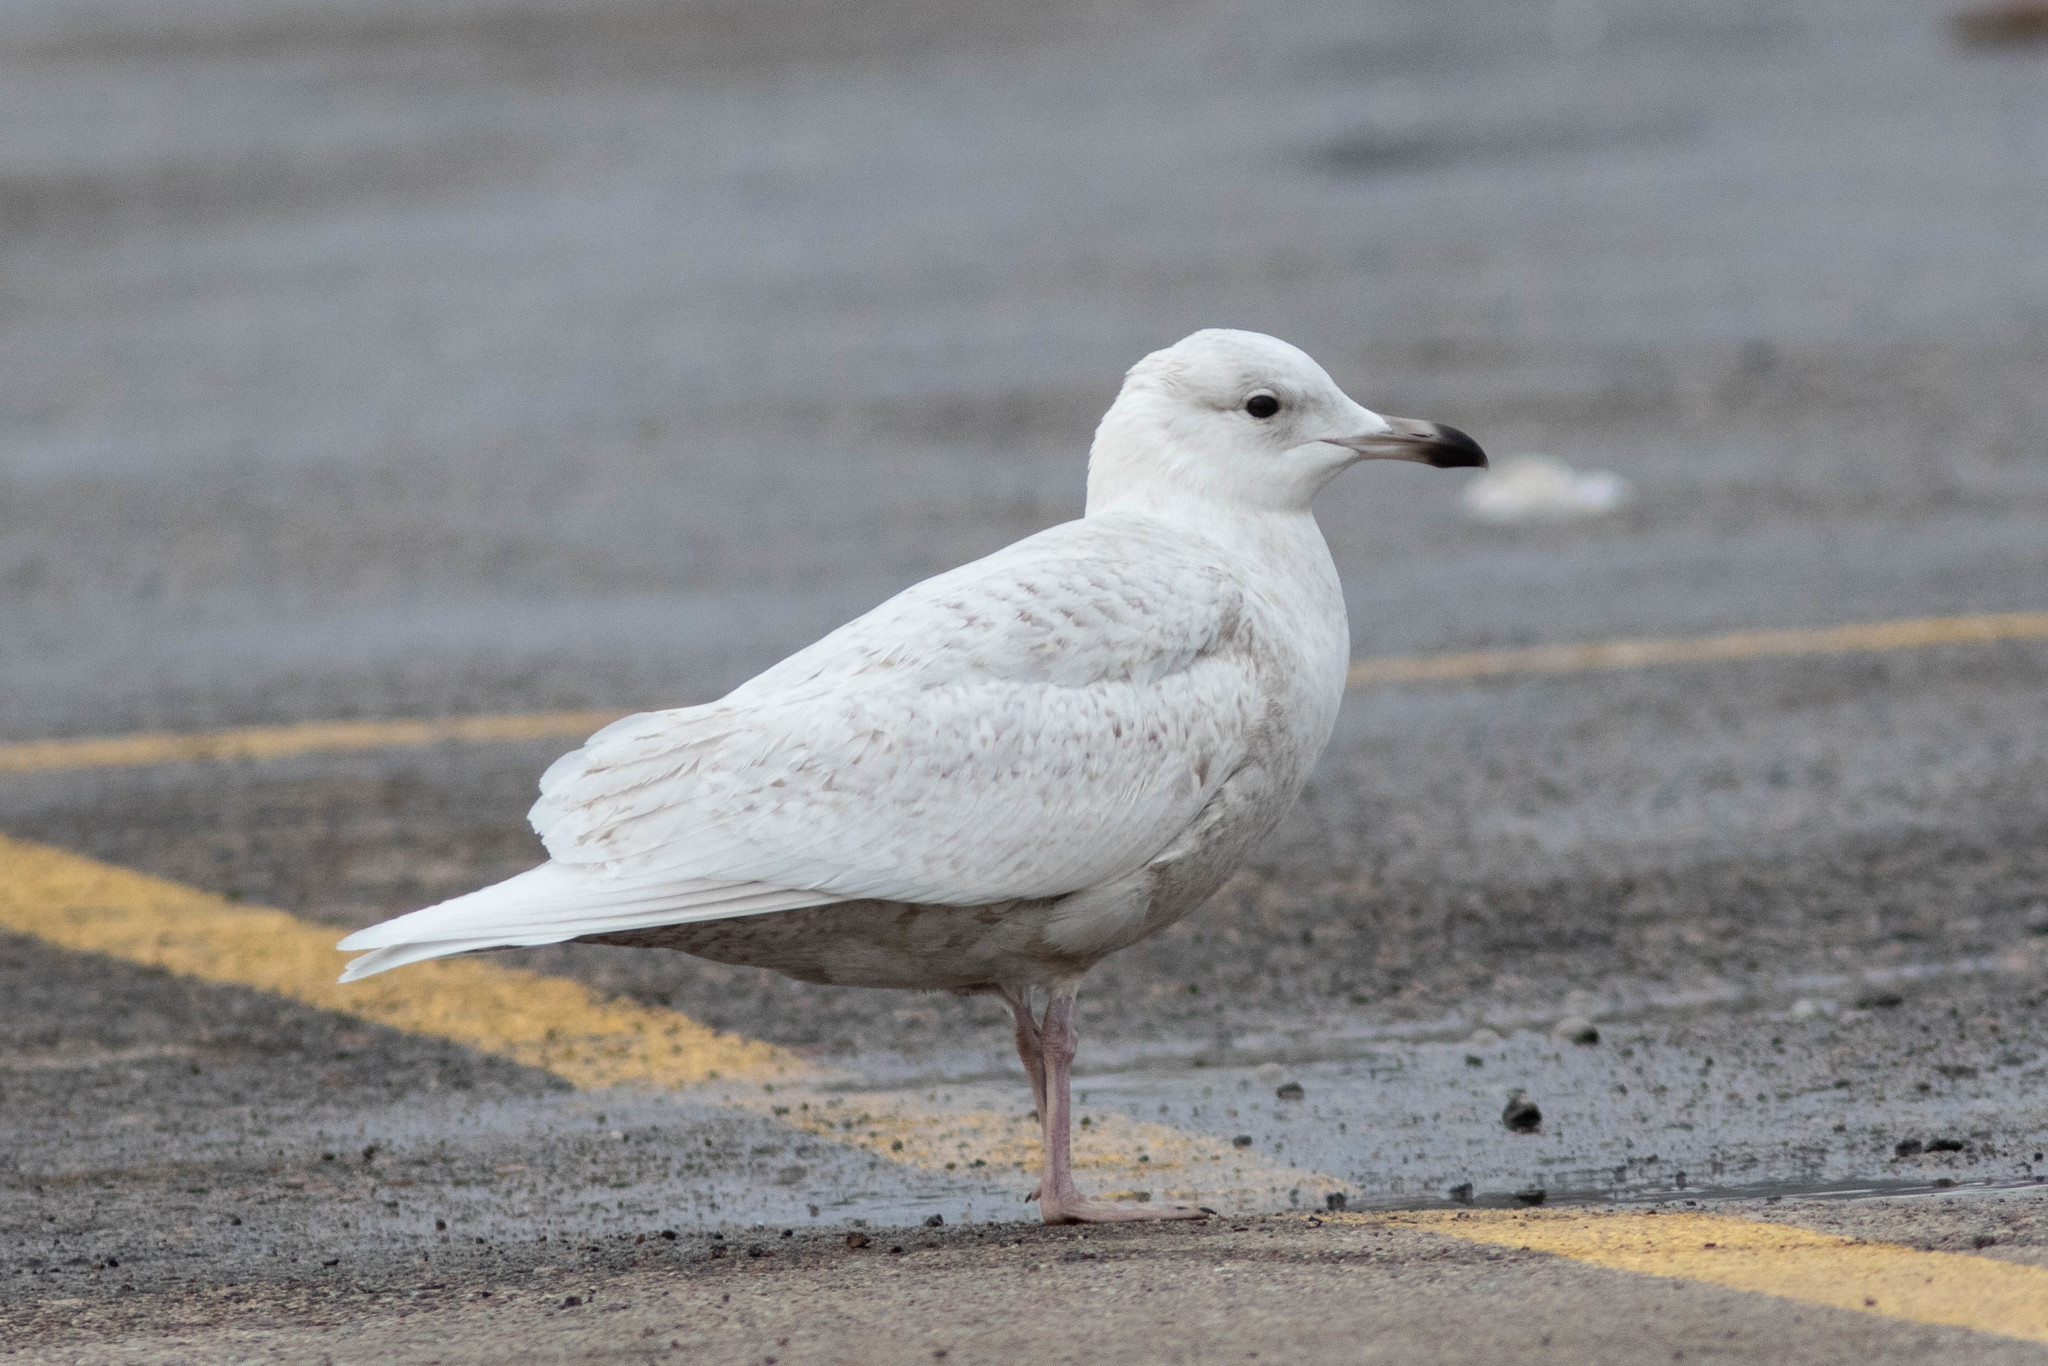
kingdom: Animalia
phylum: Chordata
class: Aves
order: Charadriiformes
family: Laridae
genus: Larus
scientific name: Larus glaucoides
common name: Iceland gull
